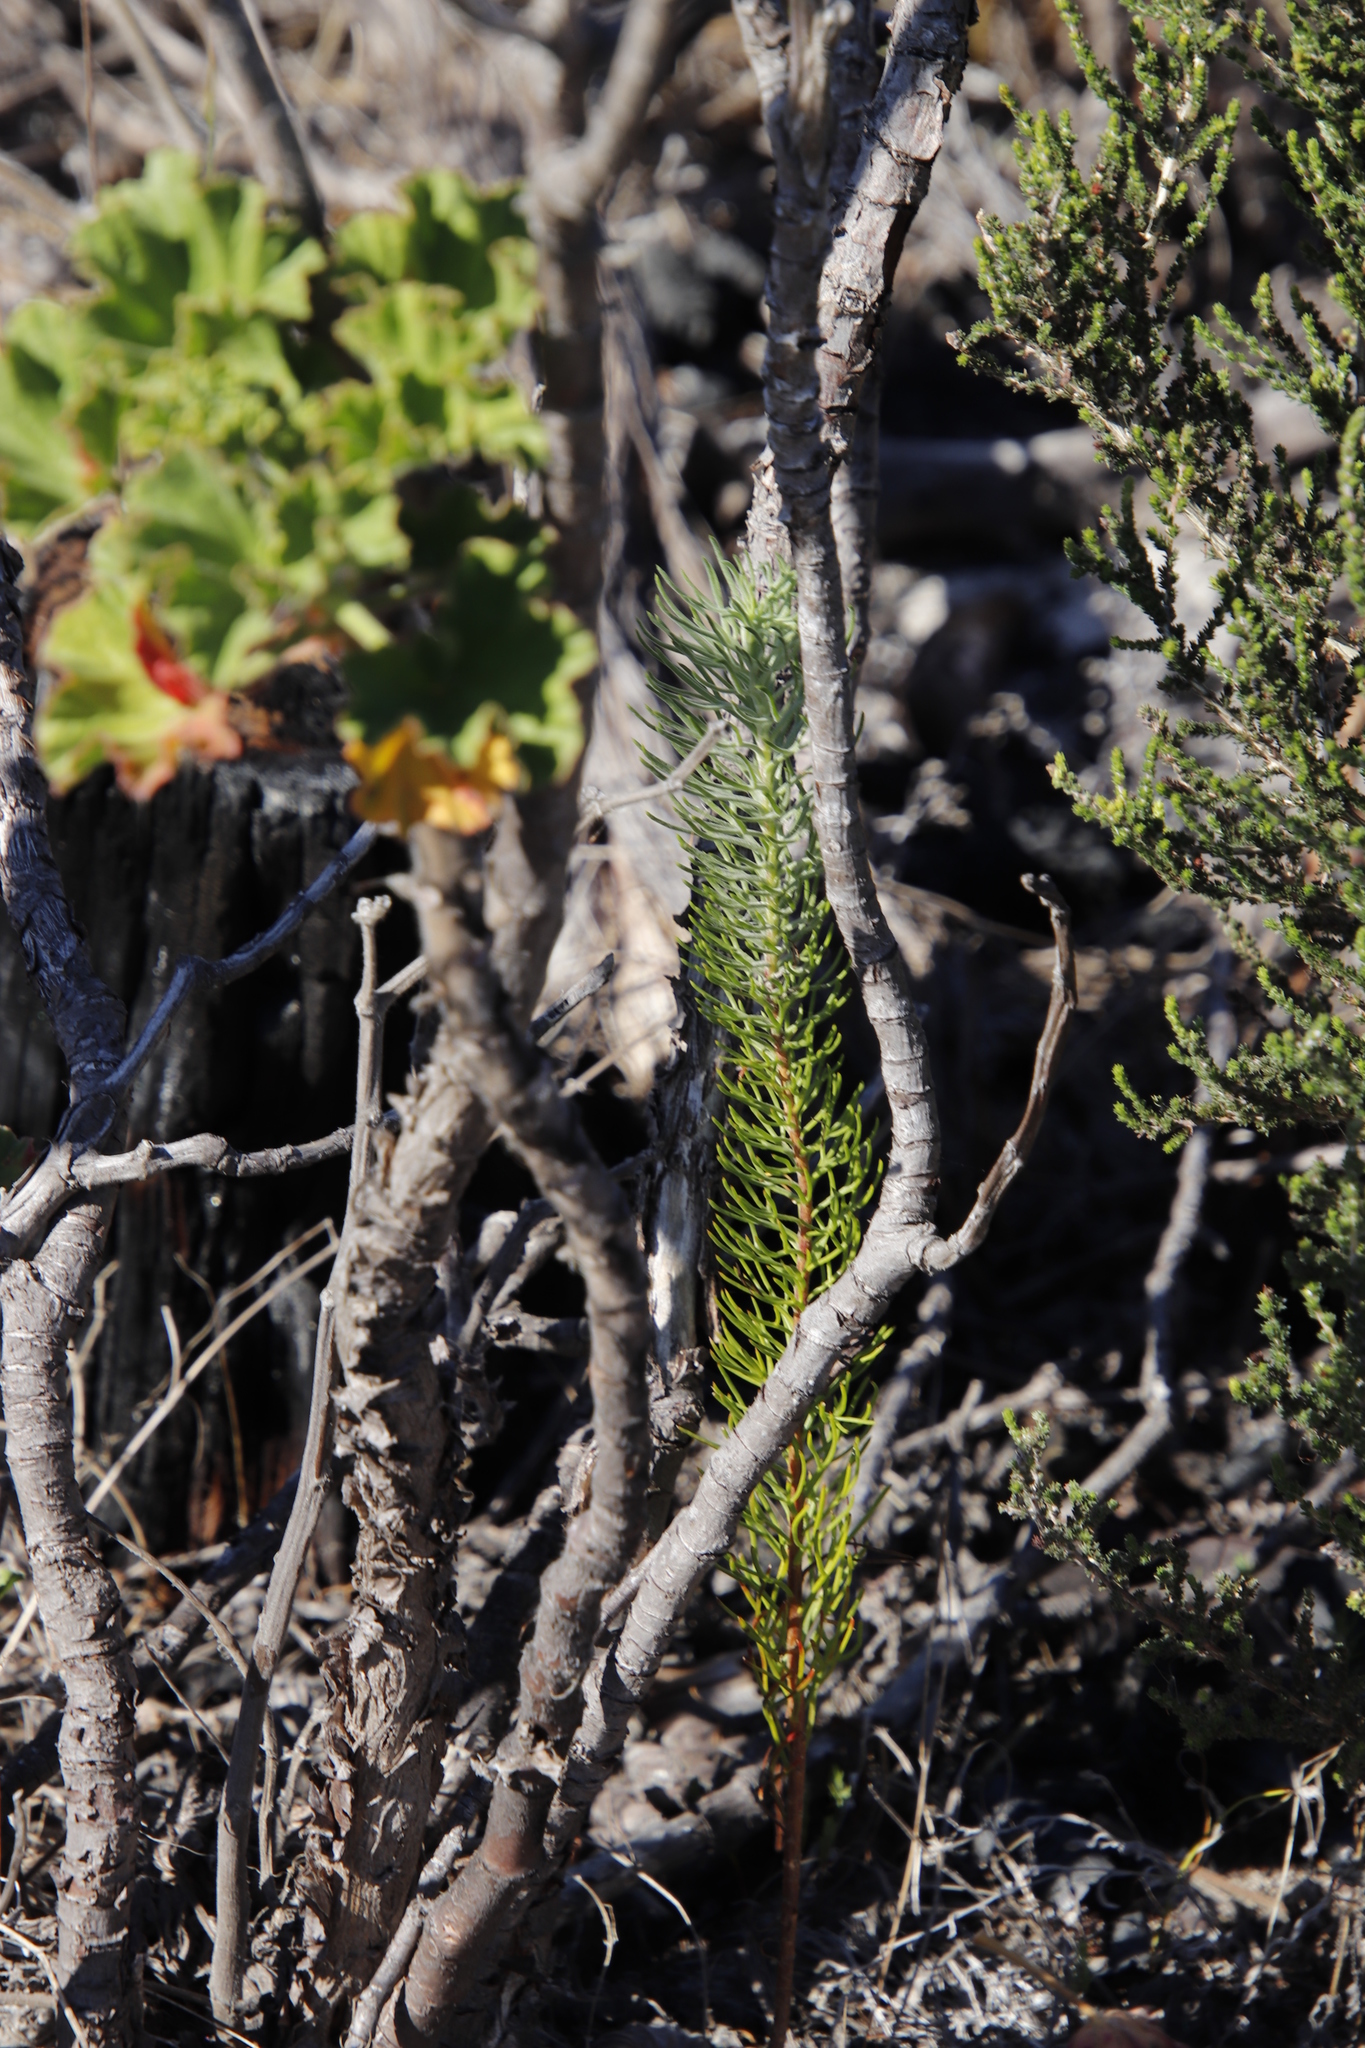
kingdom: Plantae
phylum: Tracheophyta
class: Magnoliopsida
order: Asterales
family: Asteraceae
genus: Athanasia
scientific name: Athanasia crithmifolia
